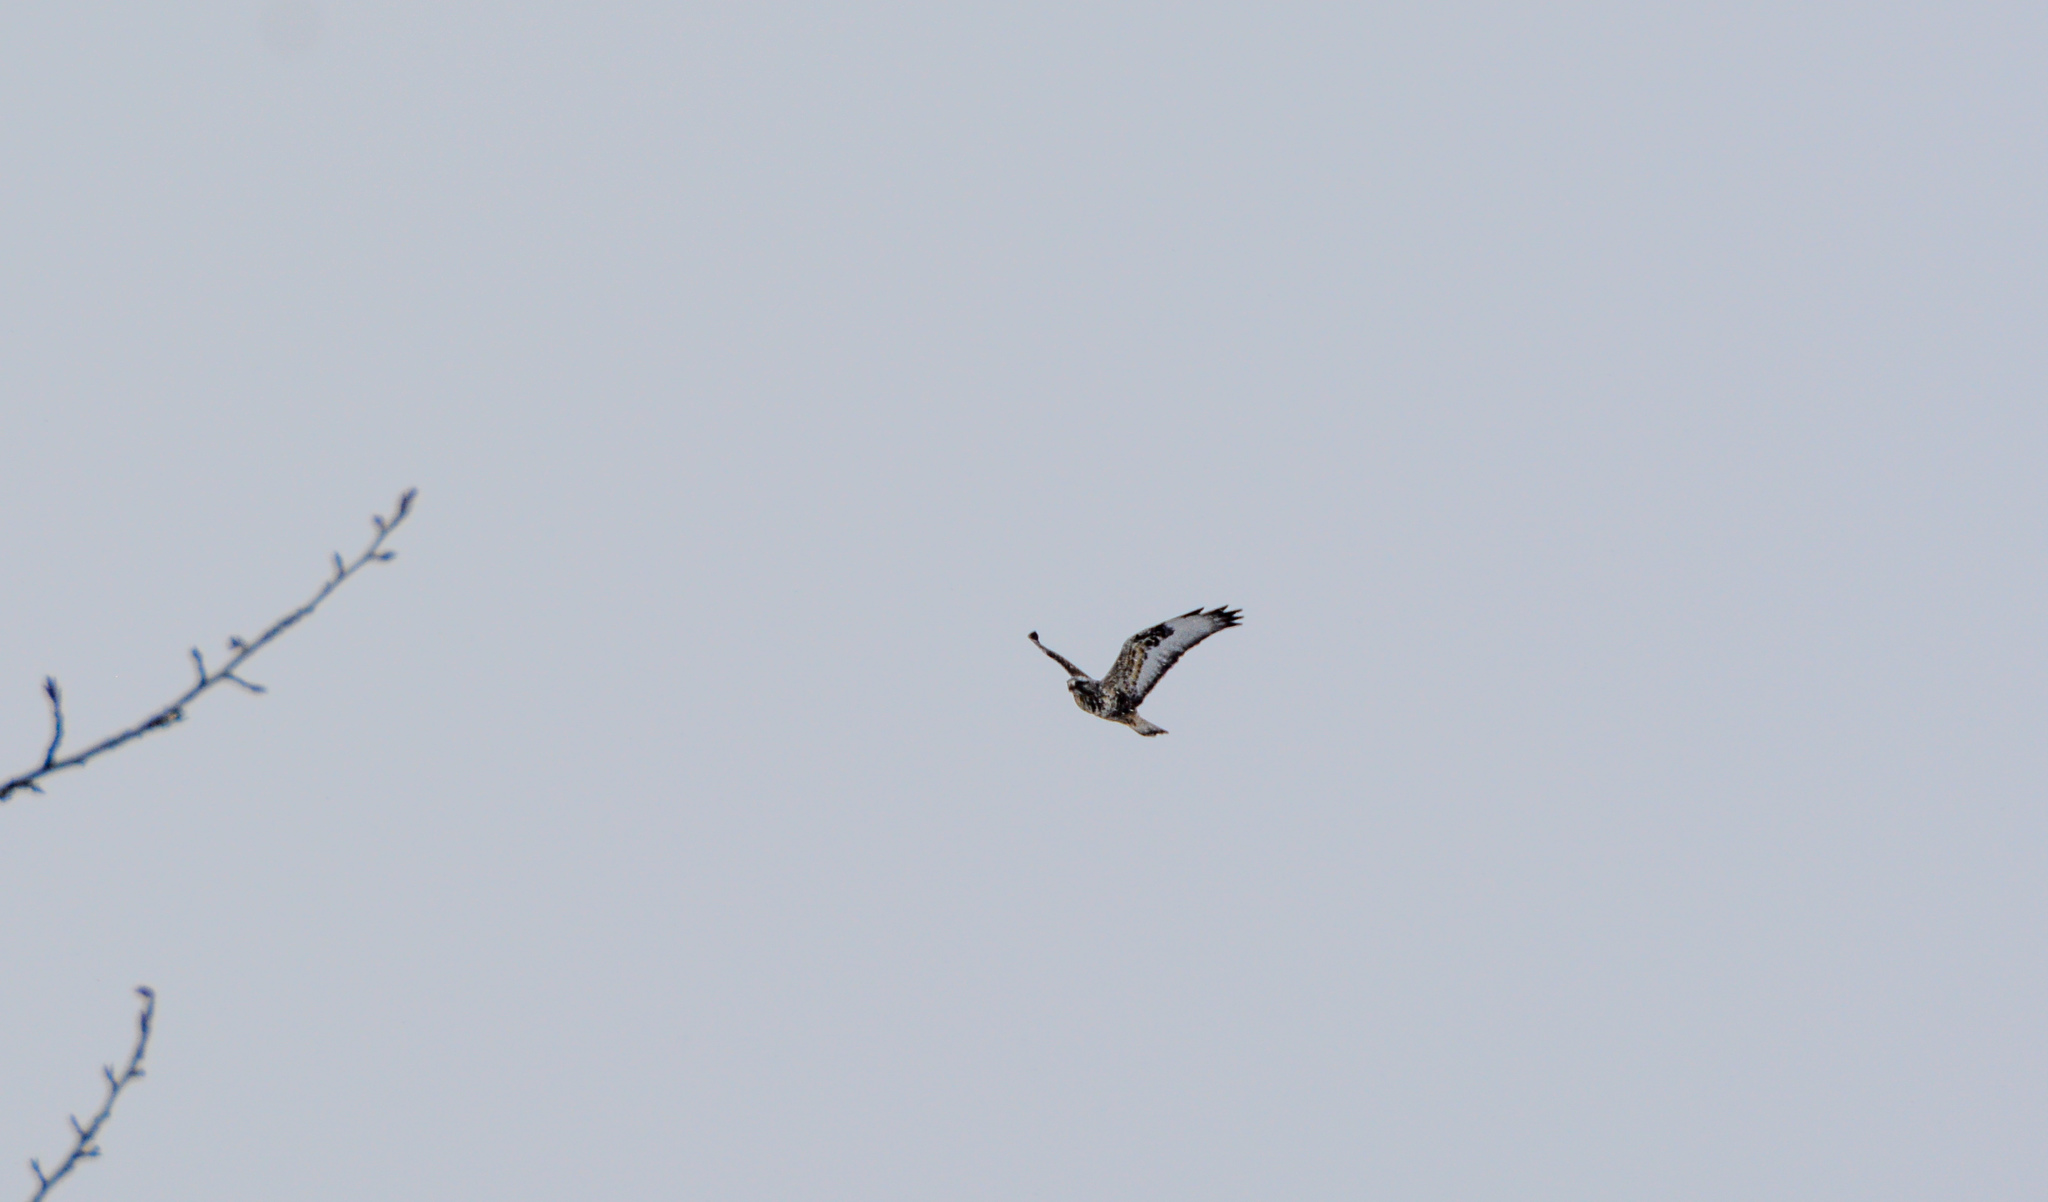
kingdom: Animalia
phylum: Chordata
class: Aves
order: Accipitriformes
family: Accipitridae
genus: Buteo
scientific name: Buteo lagopus
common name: Rough-legged buzzard
